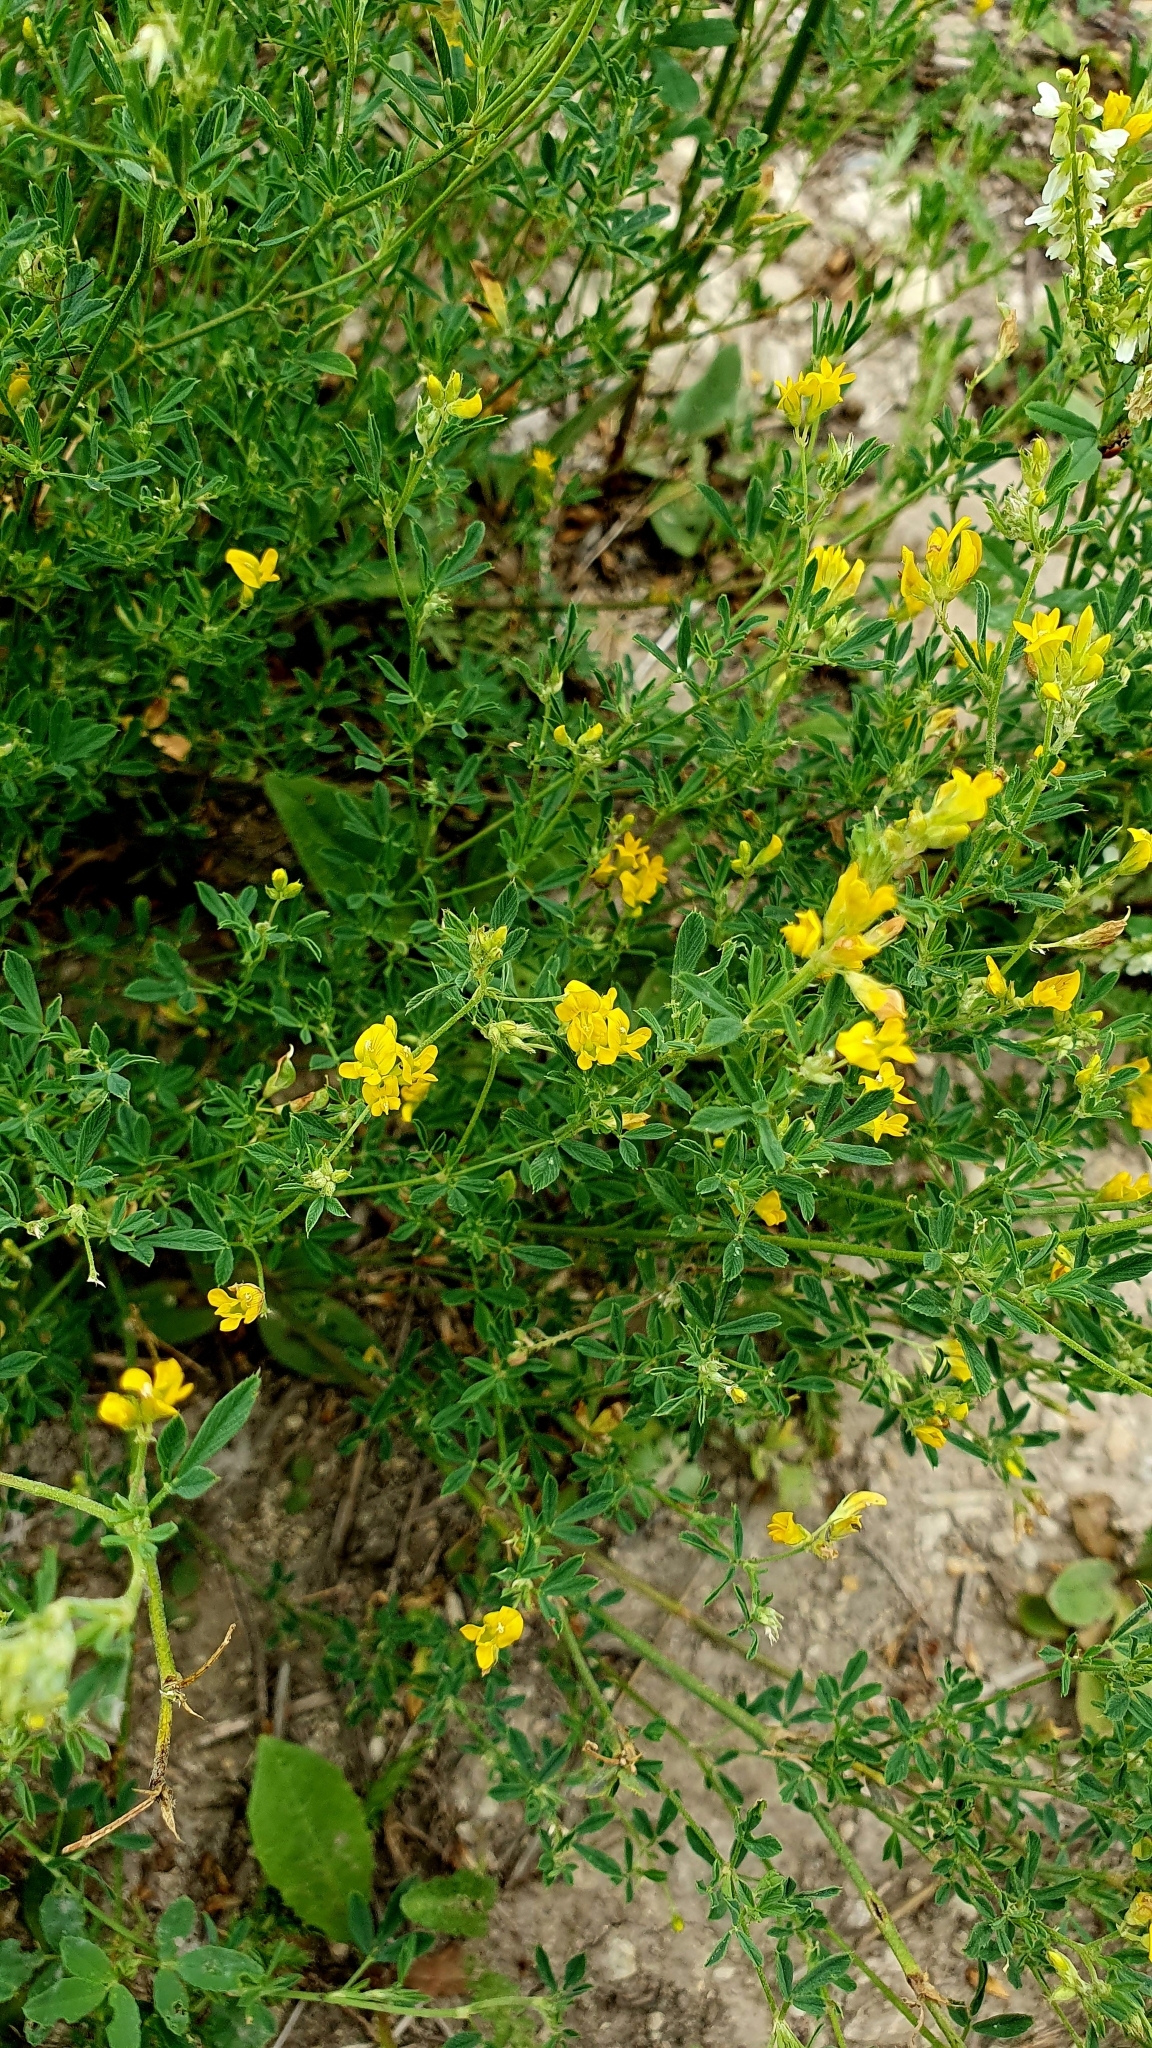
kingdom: Plantae
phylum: Tracheophyta
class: Magnoliopsida
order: Fabales
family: Fabaceae
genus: Medicago
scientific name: Medicago falcata
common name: Sickle medick
